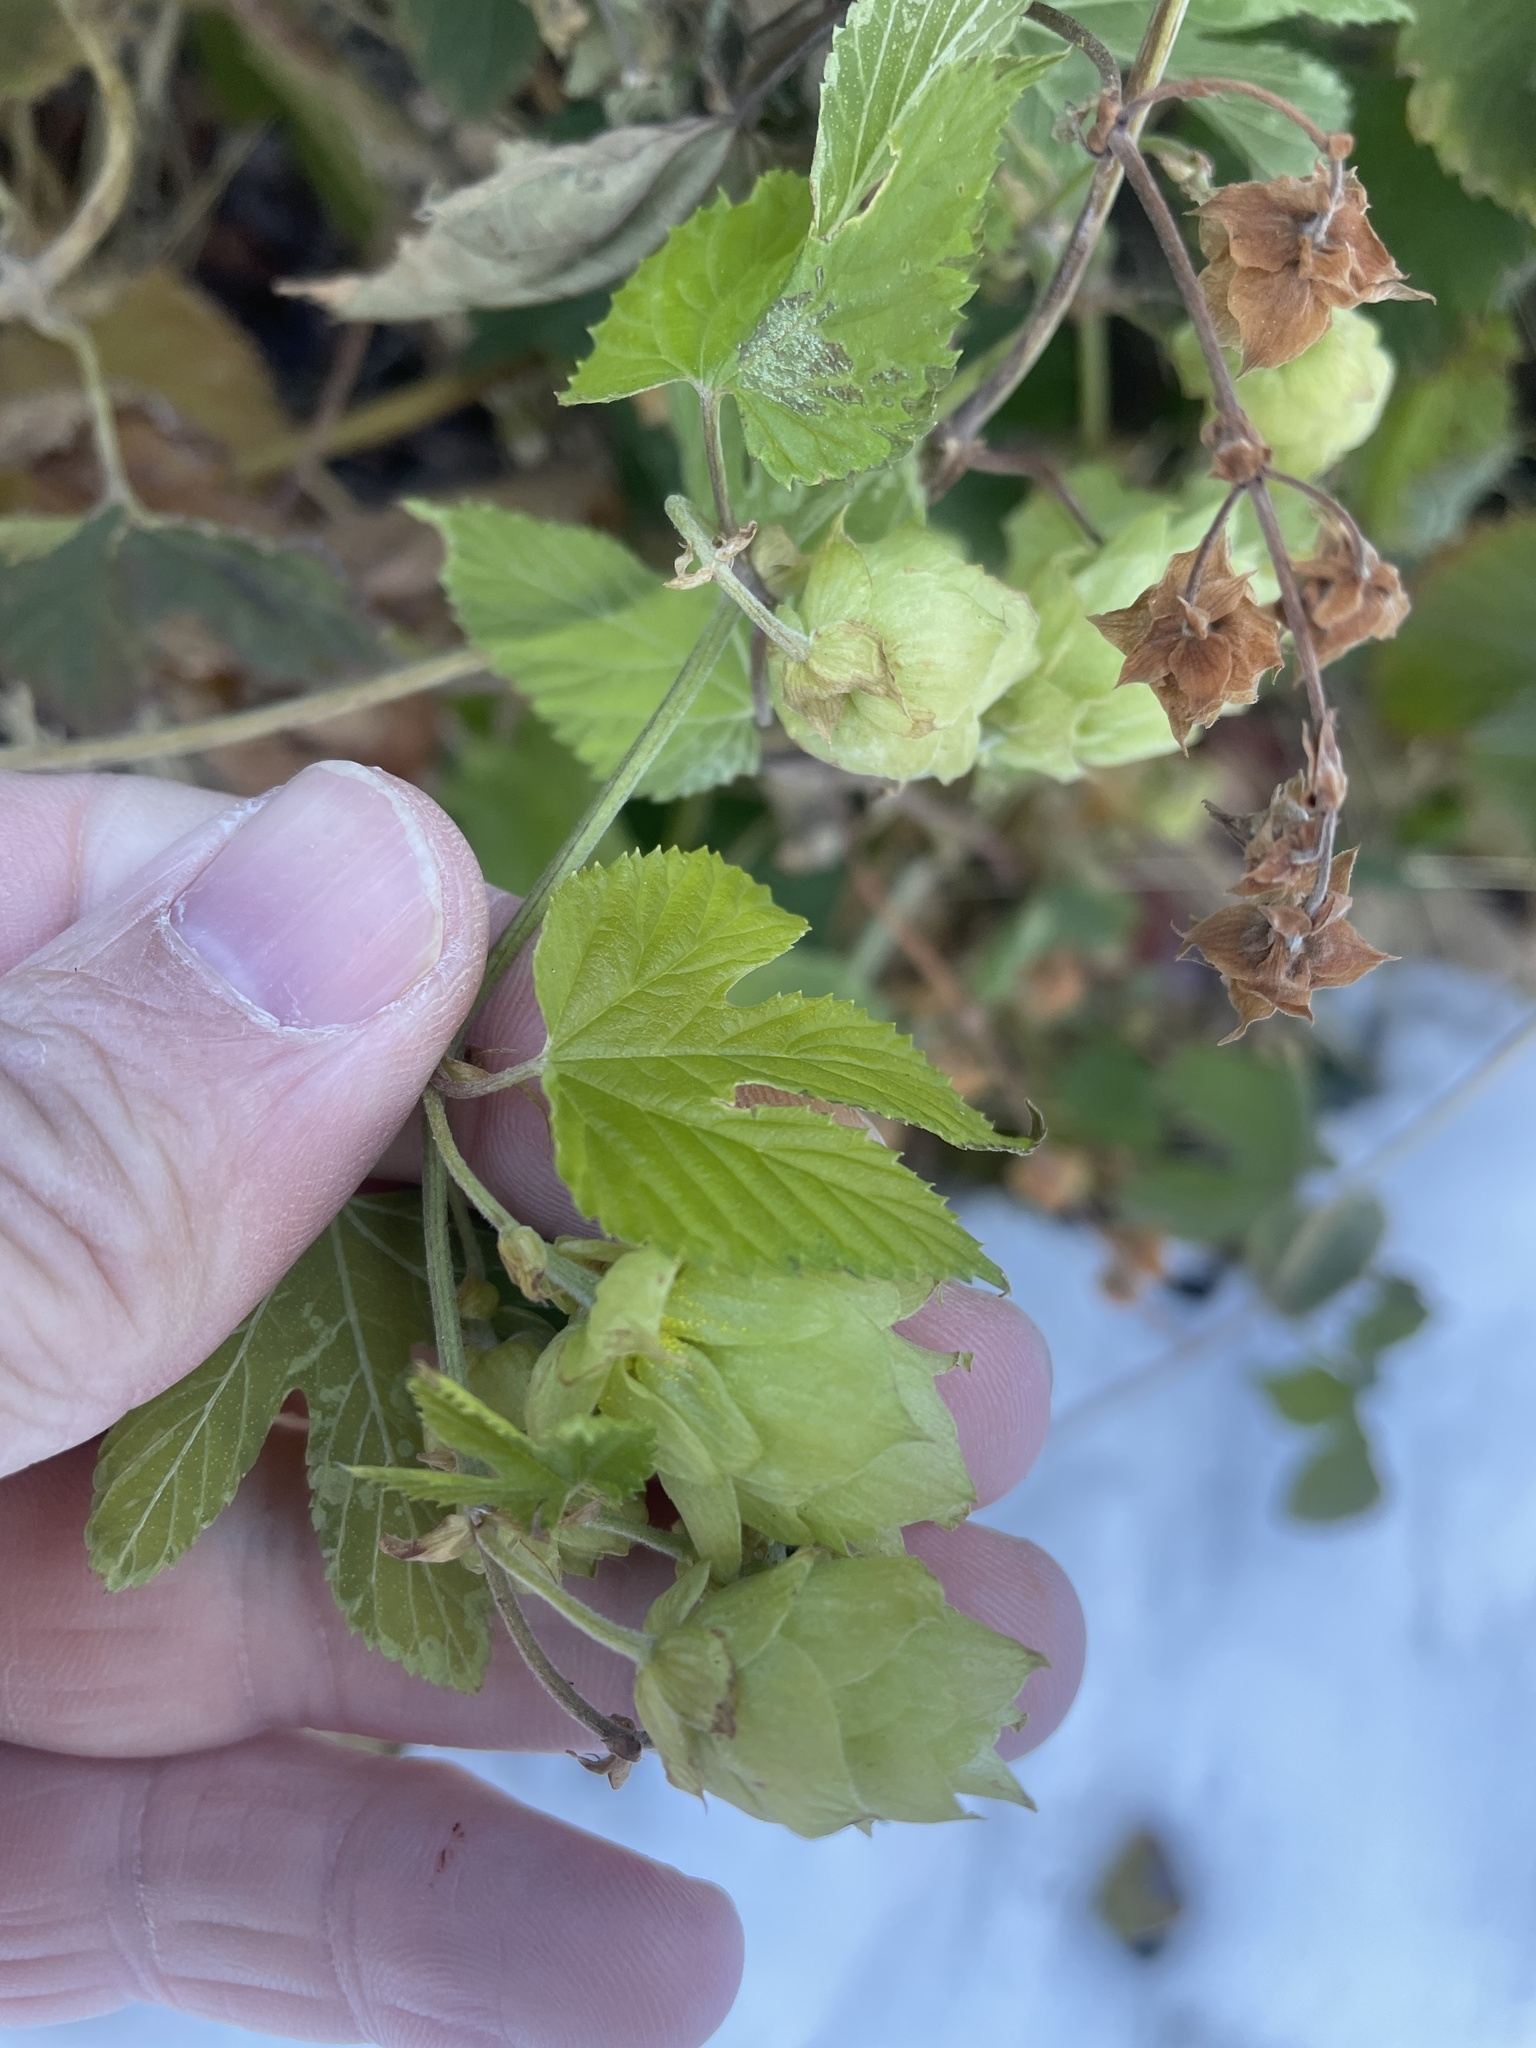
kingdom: Plantae
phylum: Tracheophyta
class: Magnoliopsida
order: Rosales
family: Cannabaceae
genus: Humulus
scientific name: Humulus lupulus
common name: Hop
